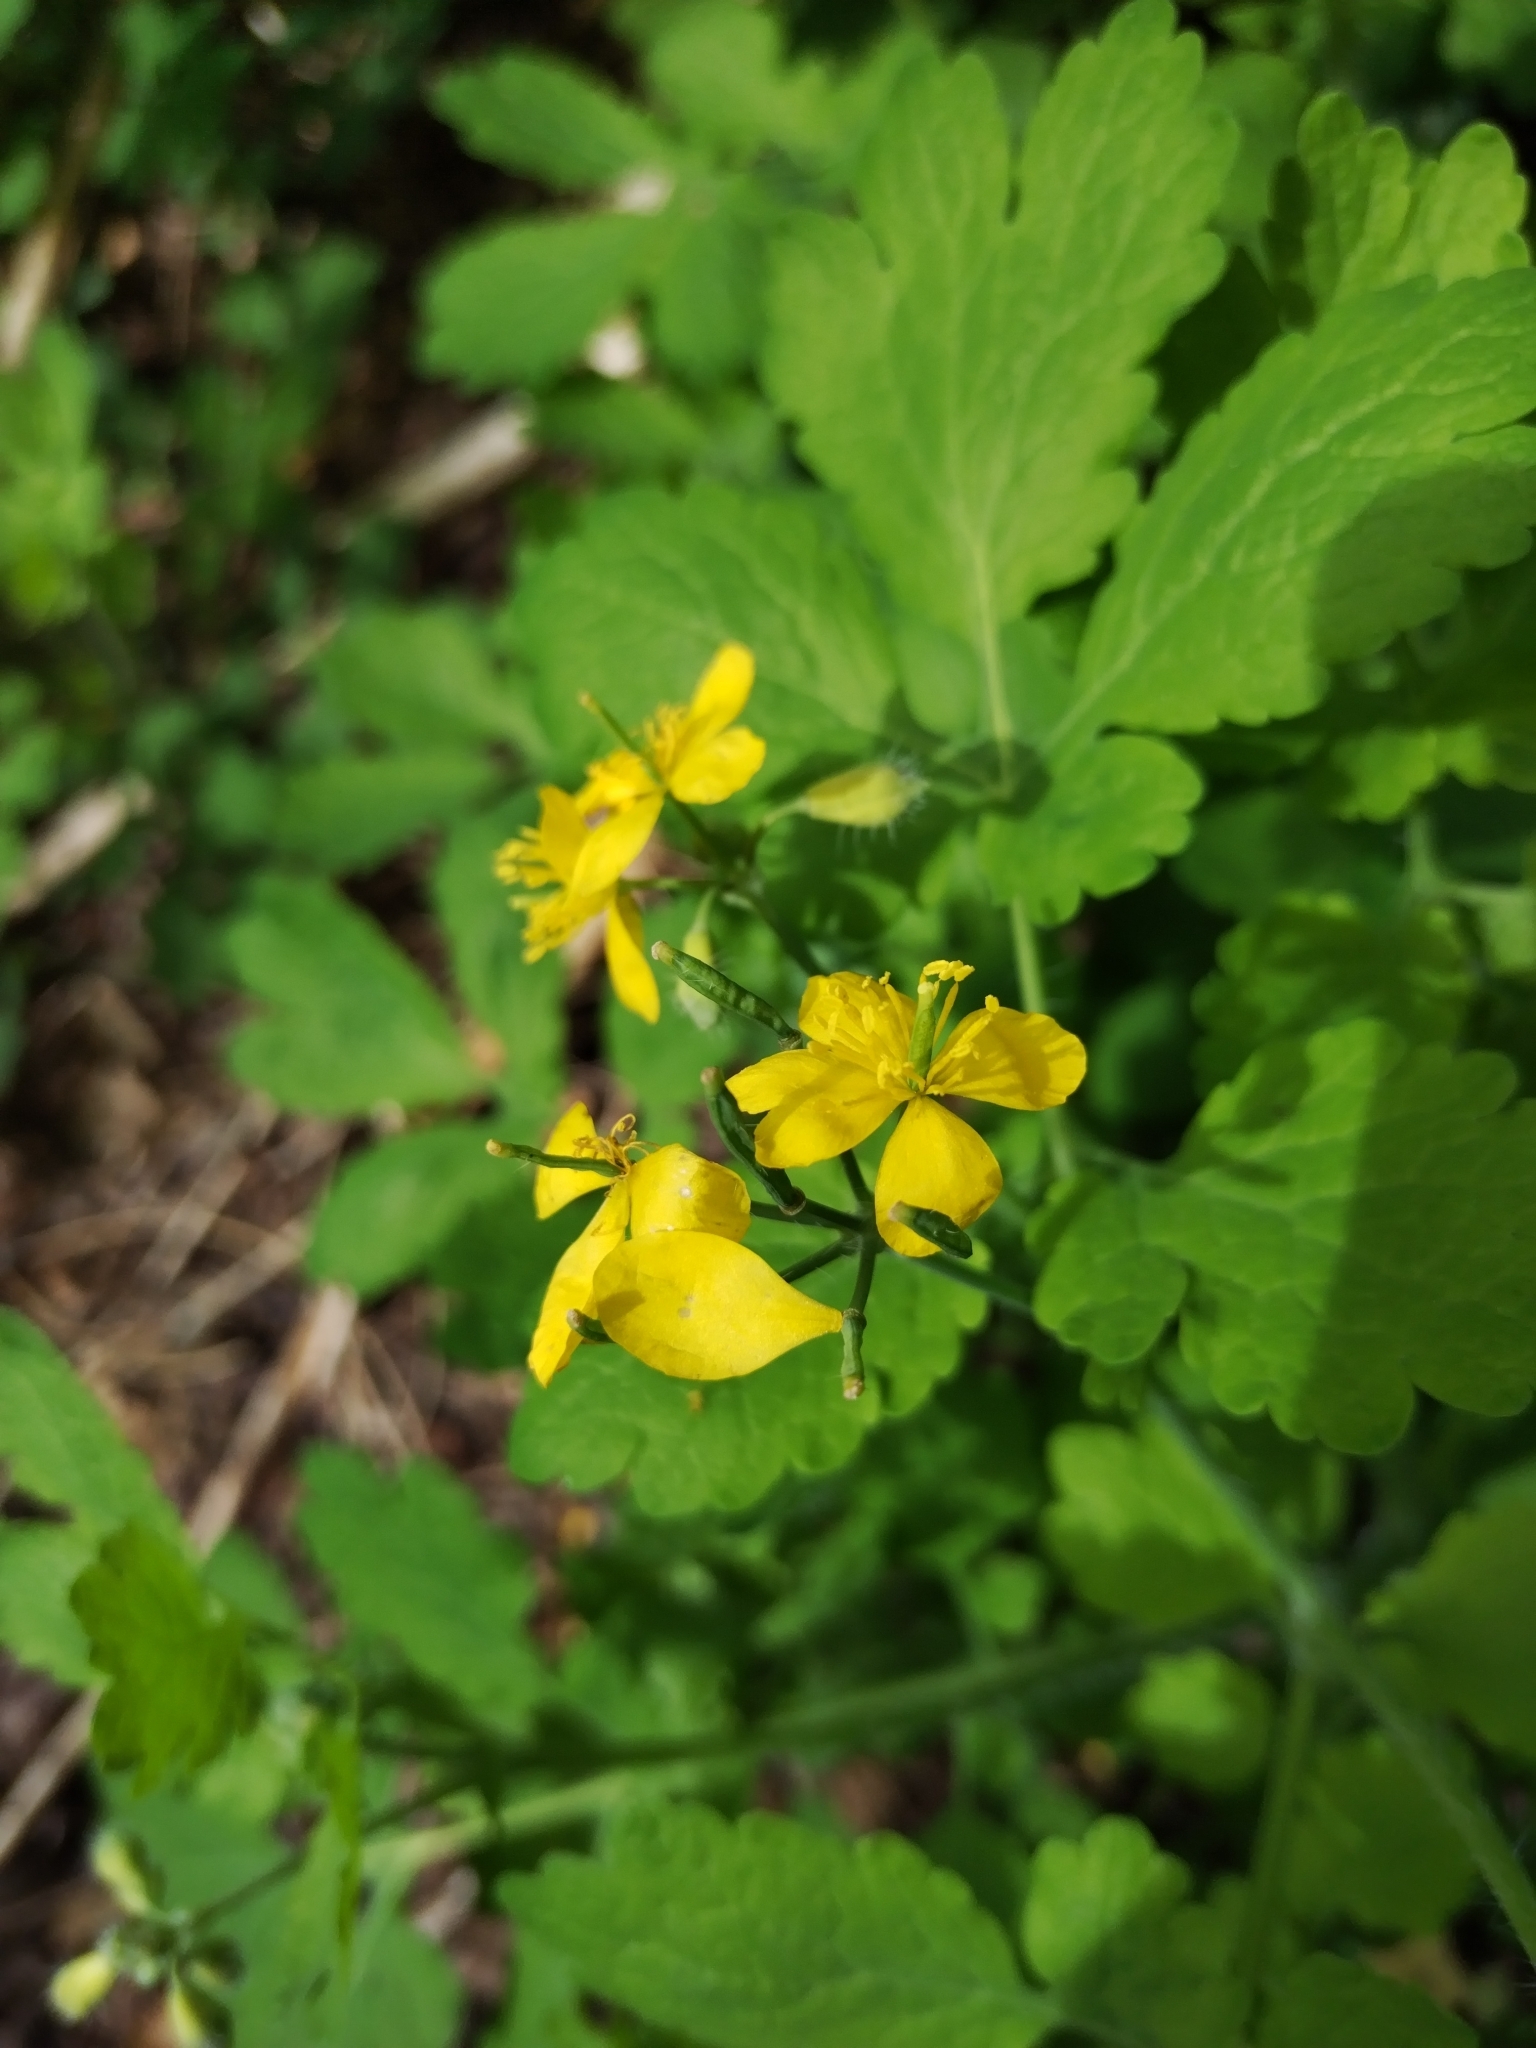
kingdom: Plantae
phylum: Tracheophyta
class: Magnoliopsida
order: Ranunculales
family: Papaveraceae
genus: Chelidonium
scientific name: Chelidonium majus
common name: Greater celandine
